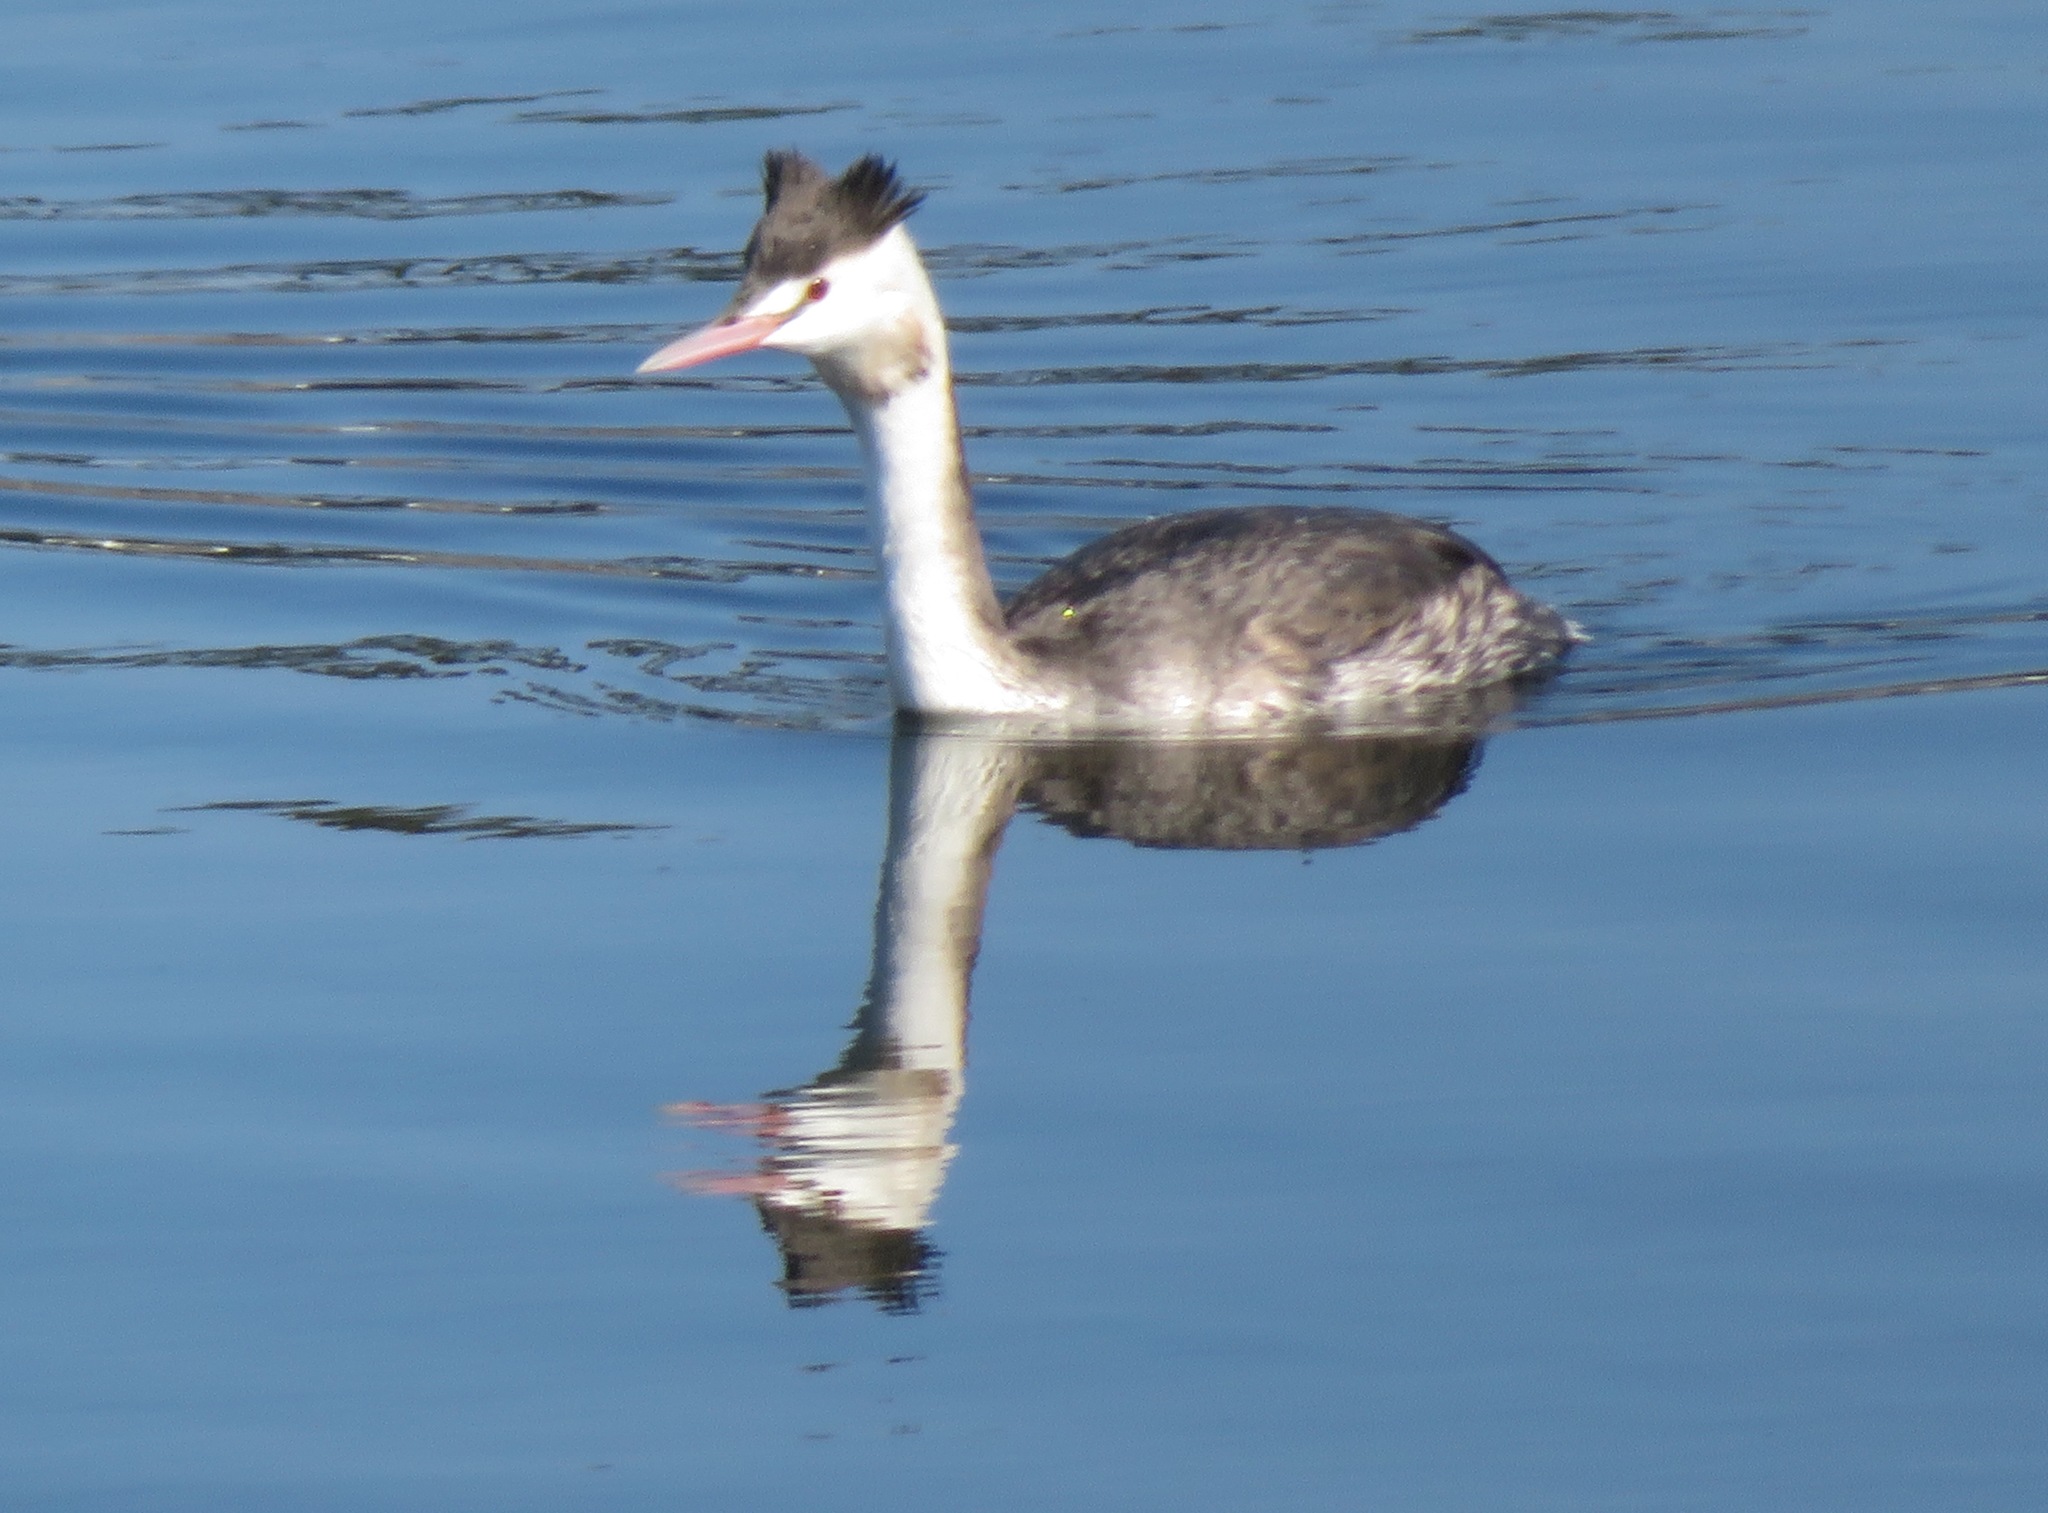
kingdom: Animalia
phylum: Chordata
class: Aves
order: Podicipediformes
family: Podicipedidae
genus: Podiceps
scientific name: Podiceps cristatus
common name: Great crested grebe
